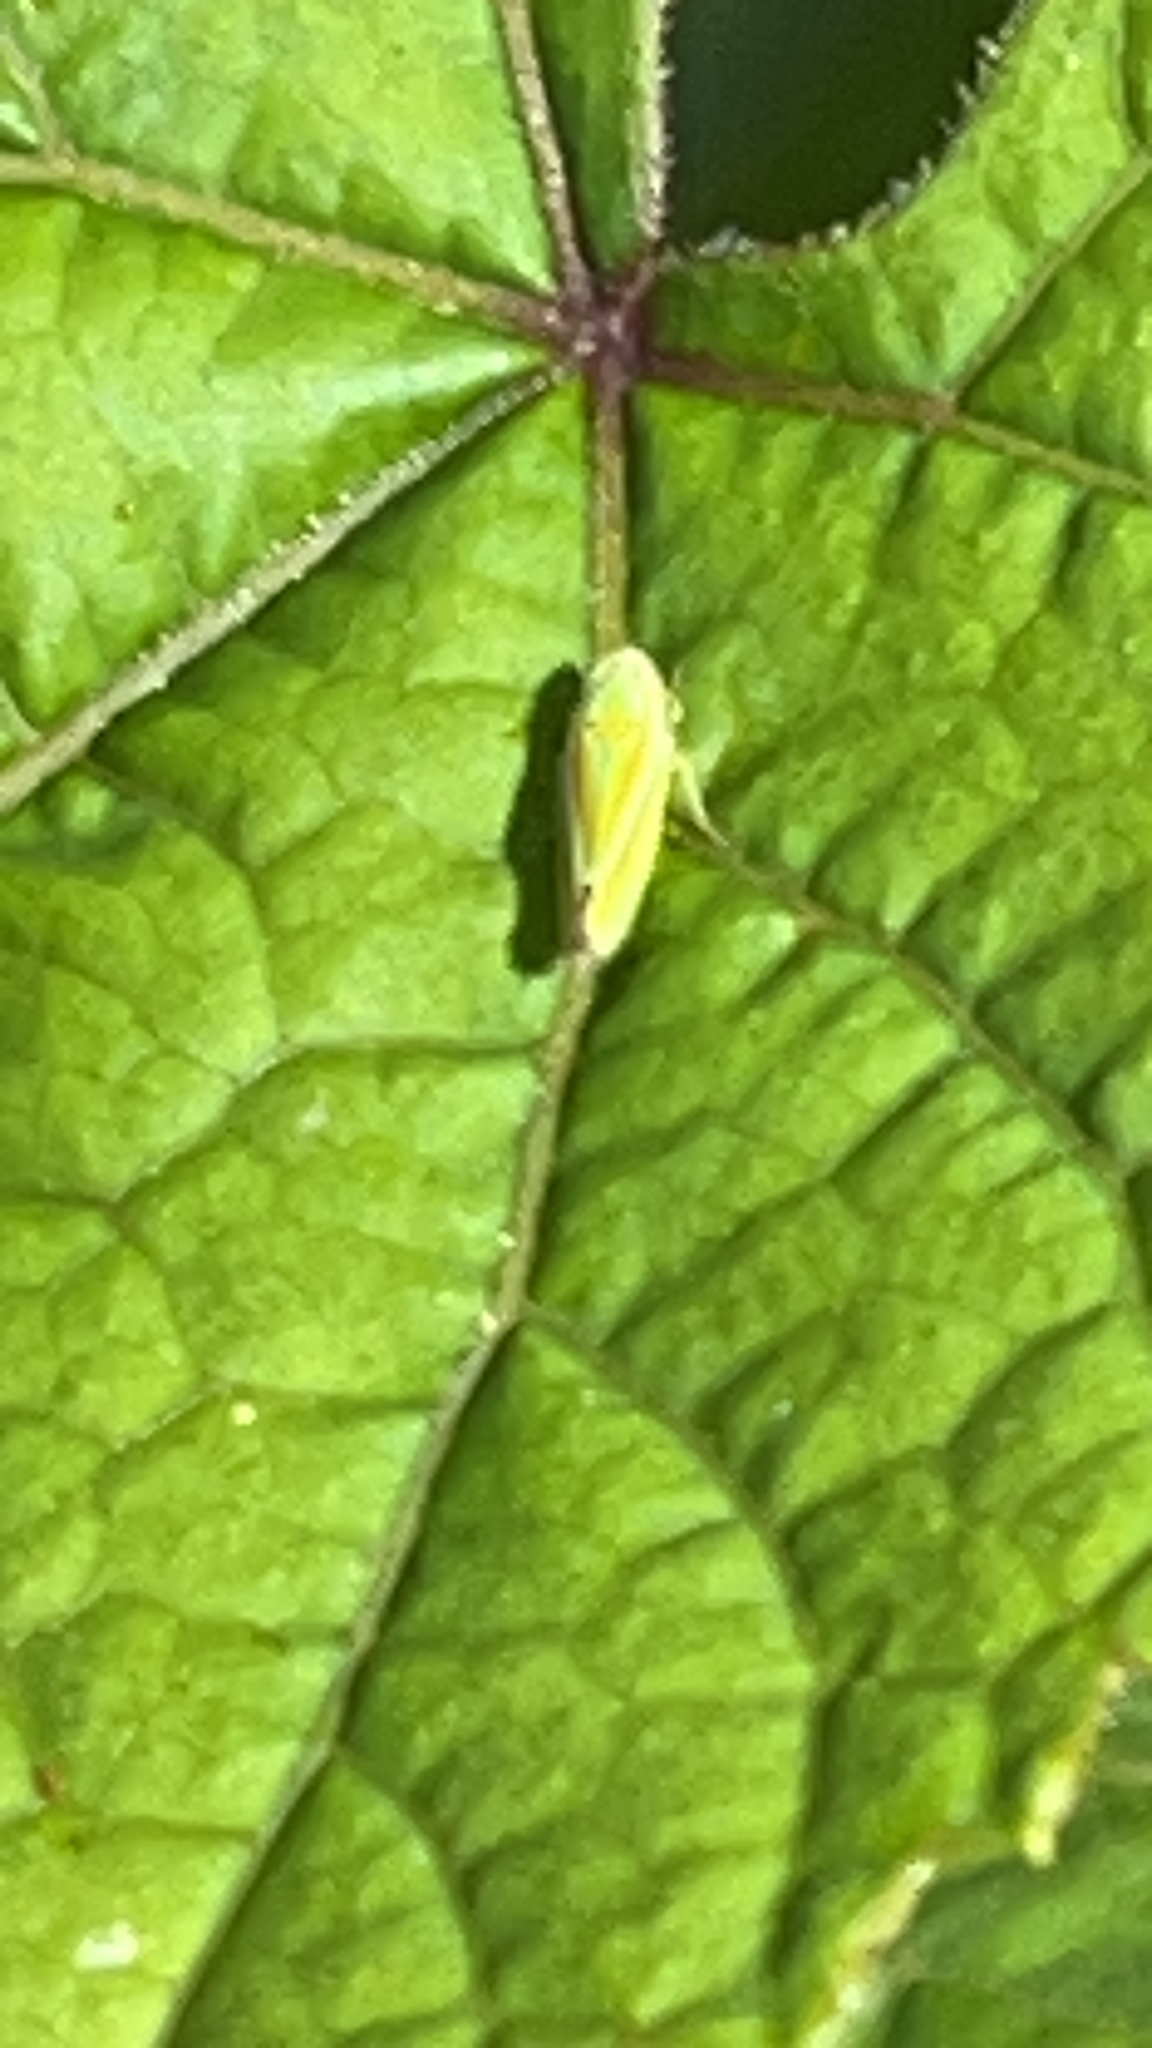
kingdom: Animalia
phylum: Arthropoda
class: Insecta
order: Hemiptera
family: Cicadellidae
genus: Graphocephala
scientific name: Graphocephala versuta
